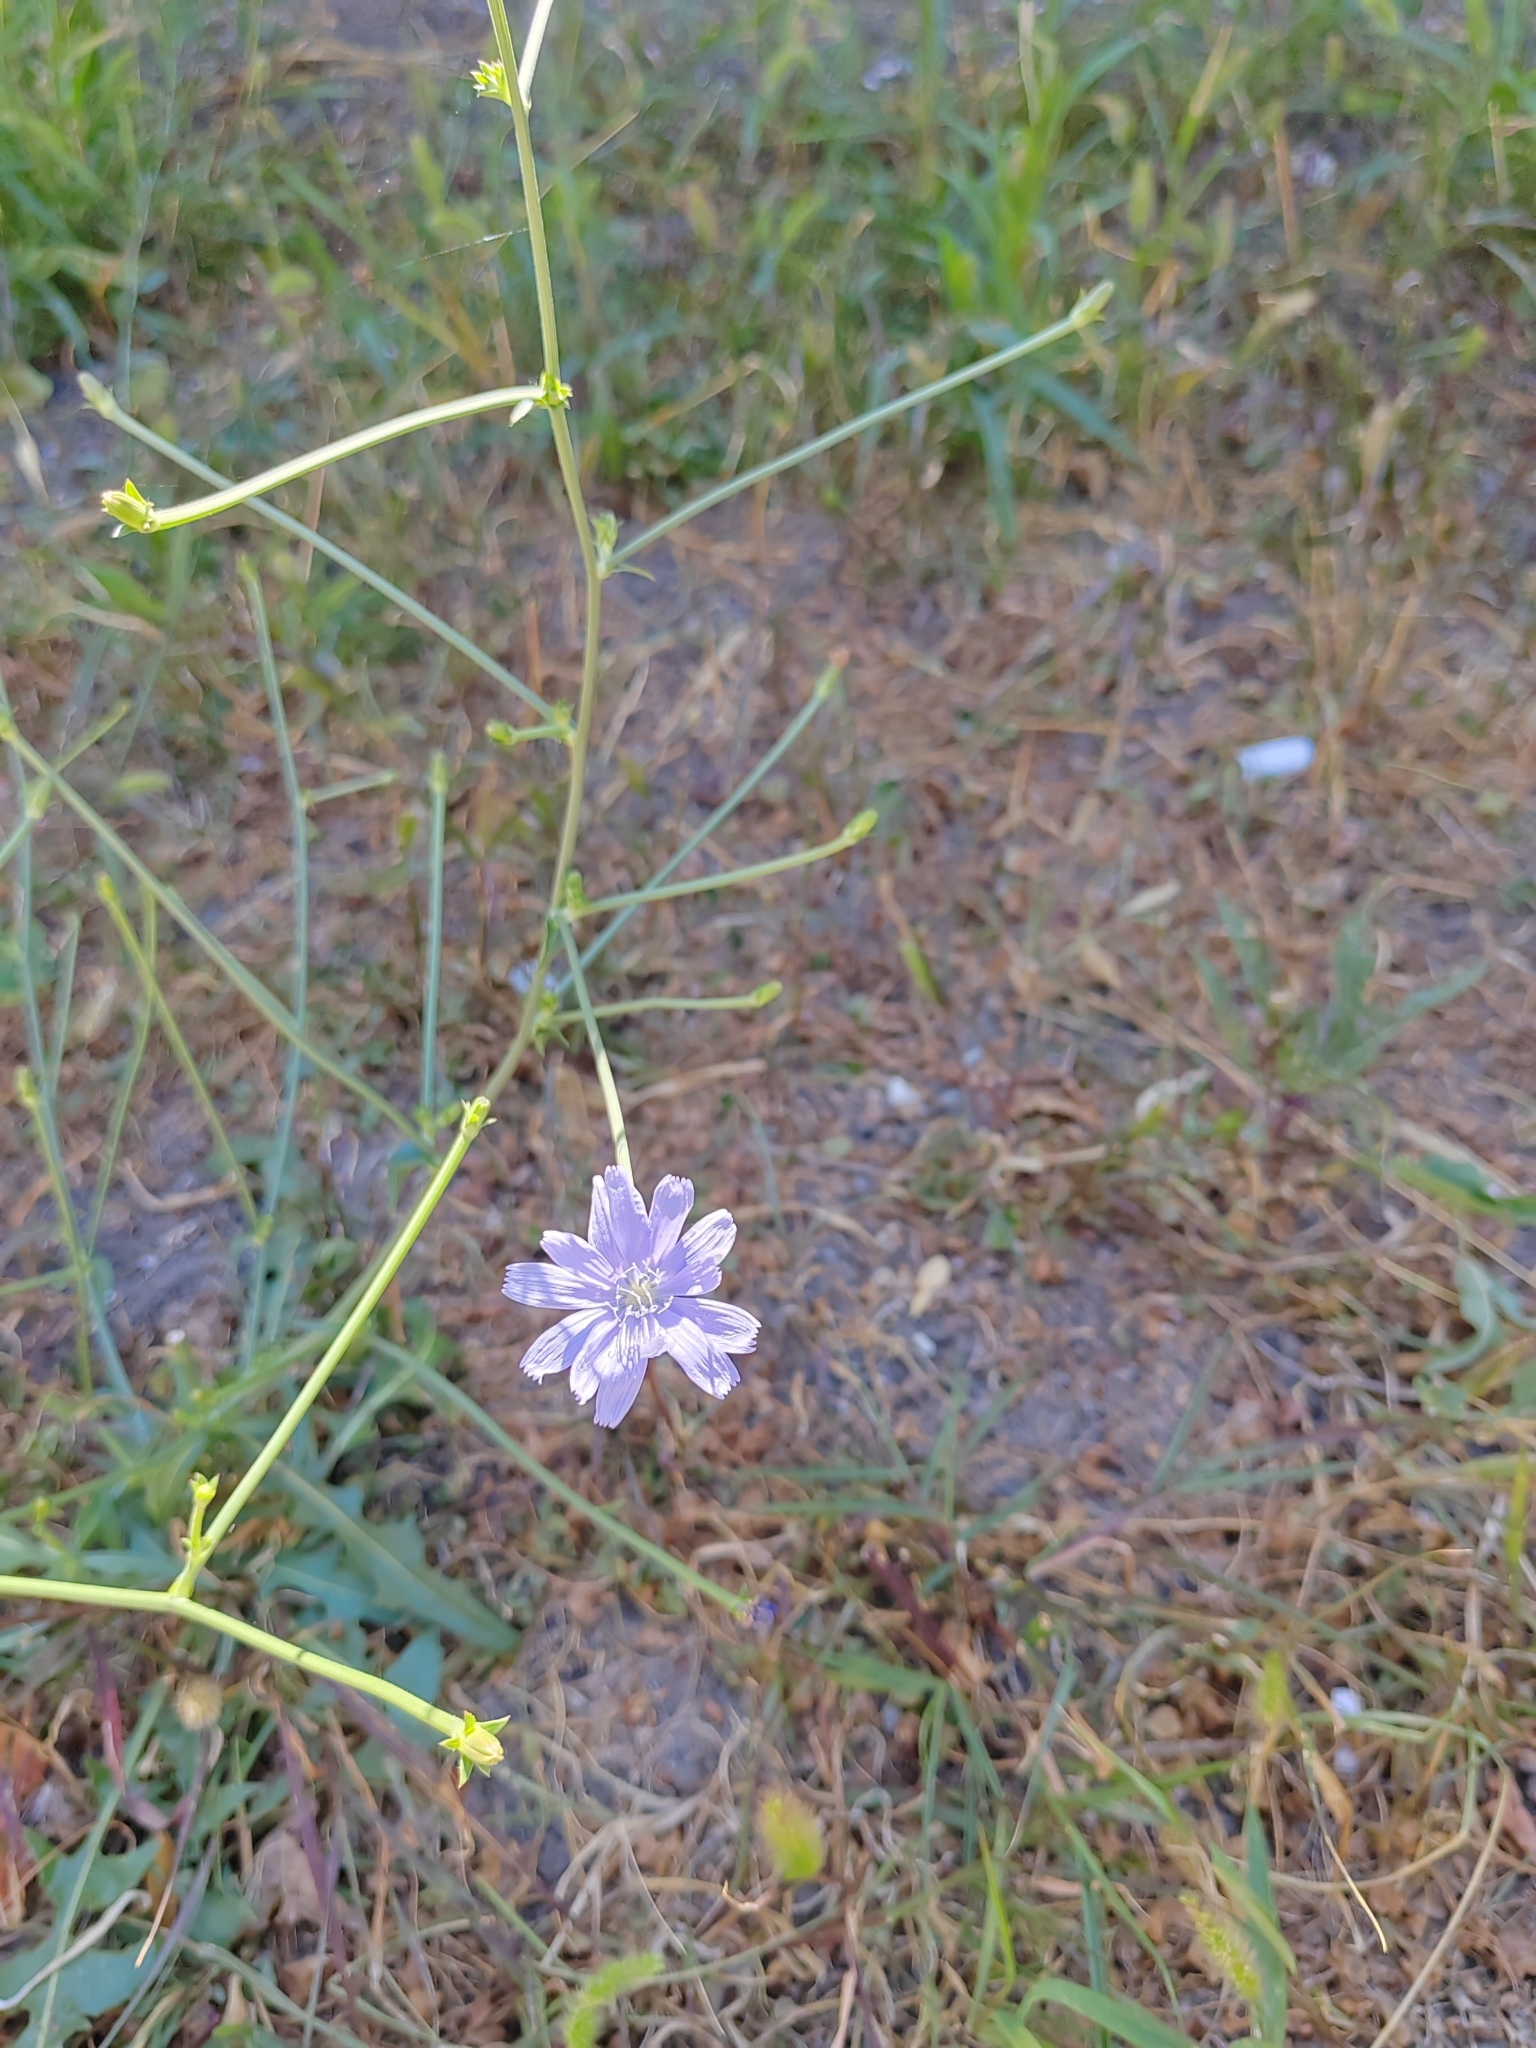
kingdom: Plantae
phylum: Tracheophyta
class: Magnoliopsida
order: Asterales
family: Asteraceae
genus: Cichorium
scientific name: Cichorium intybus
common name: Chicory
